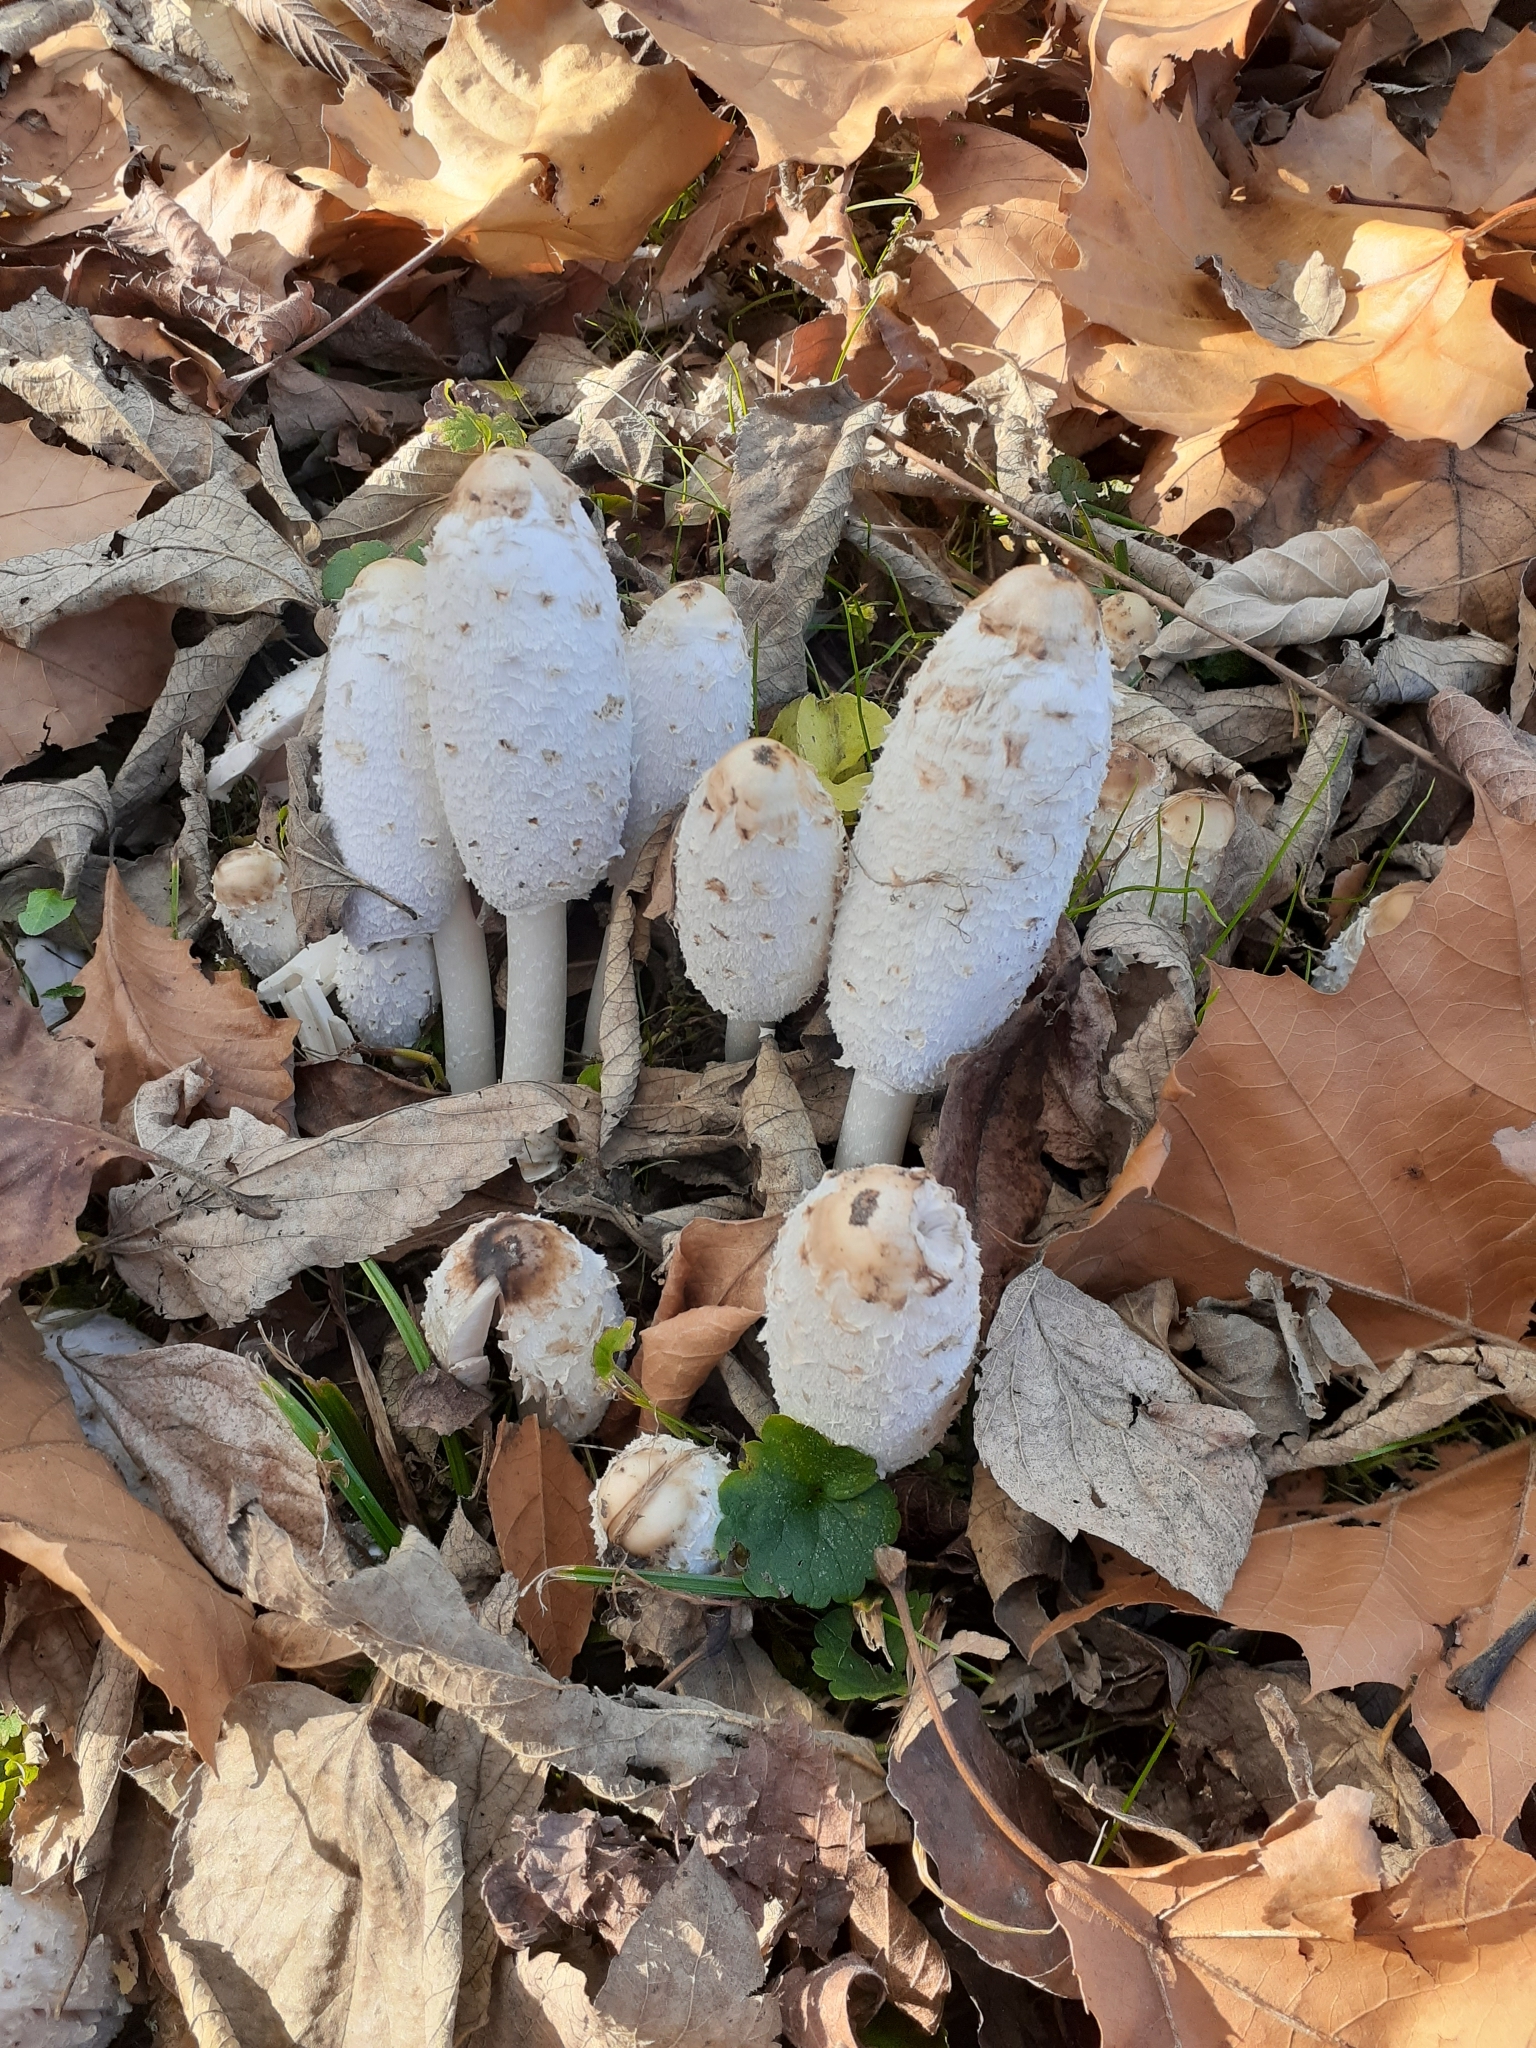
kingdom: Fungi
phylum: Basidiomycota
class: Agaricomycetes
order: Agaricales
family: Agaricaceae
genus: Coprinus
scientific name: Coprinus comatus
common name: Lawyer's wig
